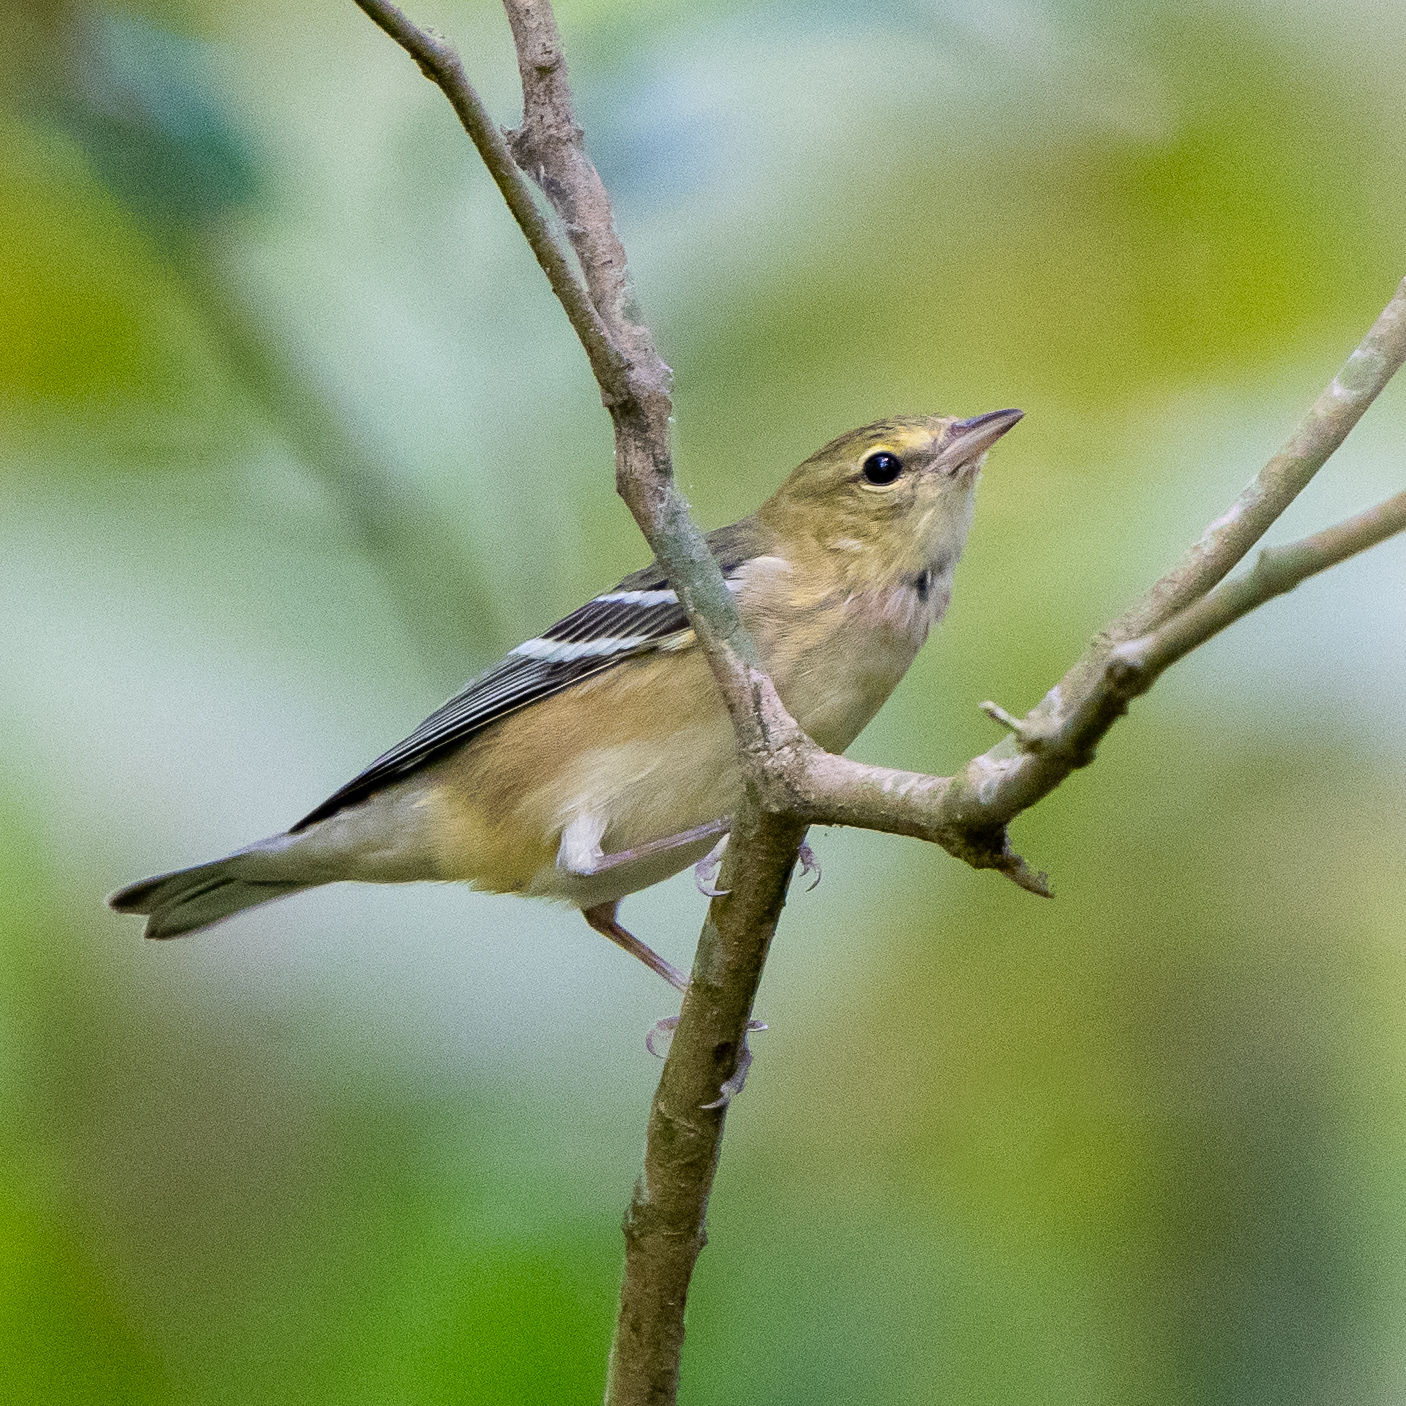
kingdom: Animalia
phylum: Chordata
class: Aves
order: Passeriformes
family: Parulidae
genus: Setophaga
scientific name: Setophaga castanea
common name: Bay-breasted warbler
